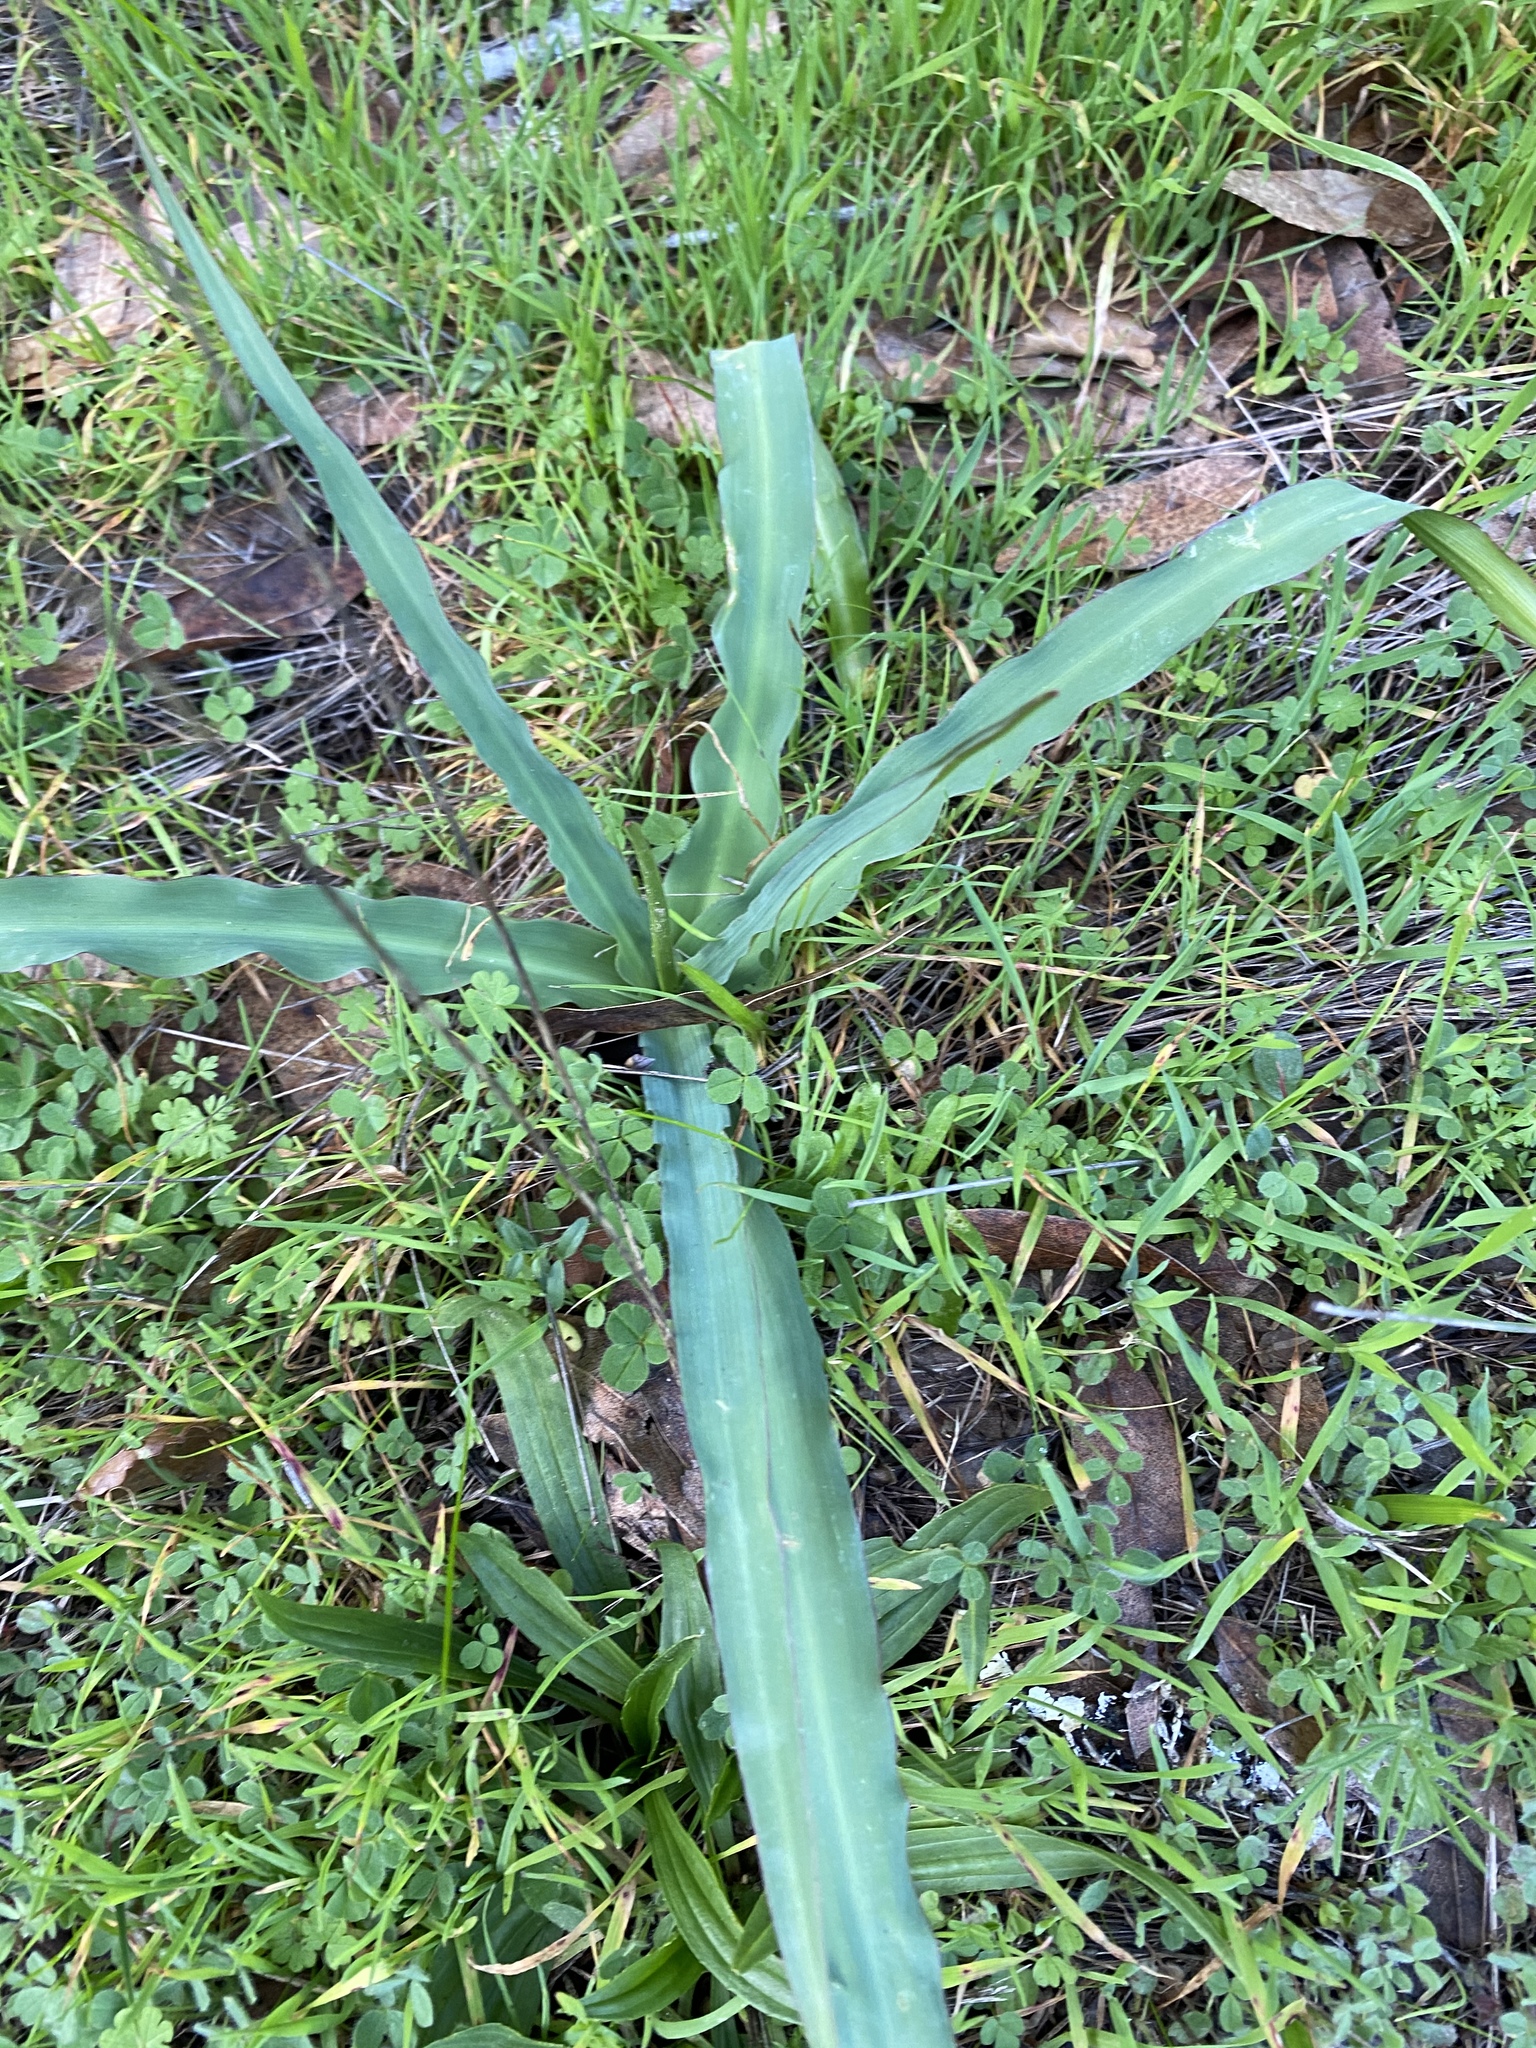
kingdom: Plantae
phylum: Tracheophyta
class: Liliopsida
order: Asparagales
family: Asparagaceae
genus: Chlorogalum
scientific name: Chlorogalum pomeridianum
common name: Amole
